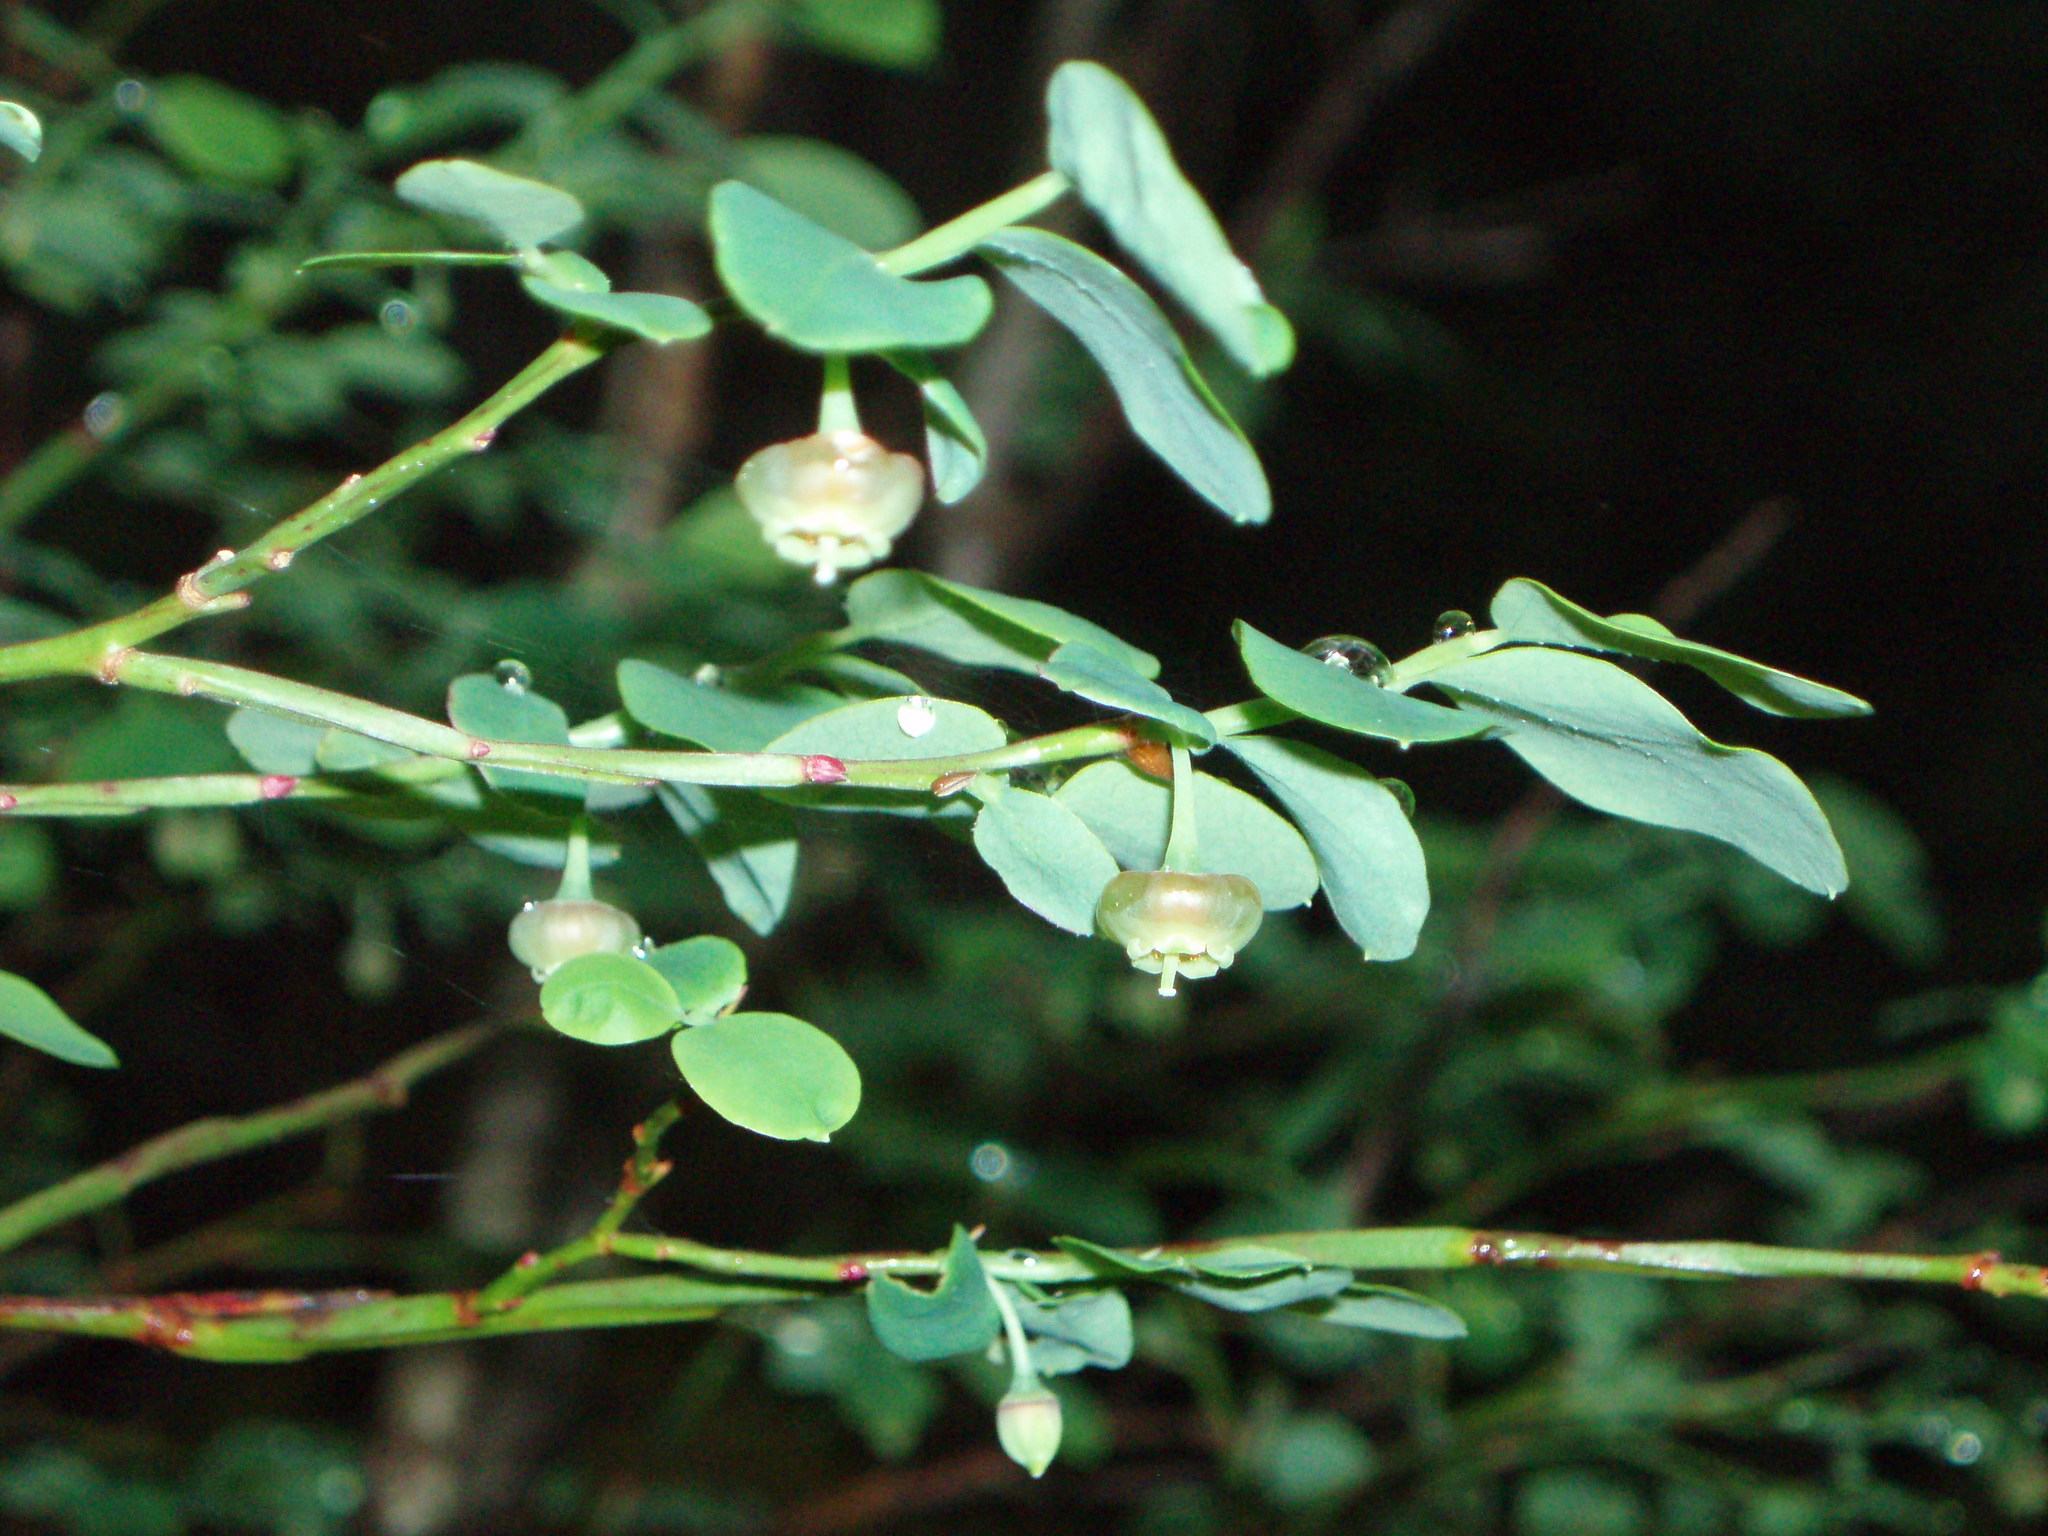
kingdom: Plantae
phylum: Tracheophyta
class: Magnoliopsida
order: Ericales
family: Ericaceae
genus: Vaccinium
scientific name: Vaccinium parvifolium
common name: Red-huckleberry
